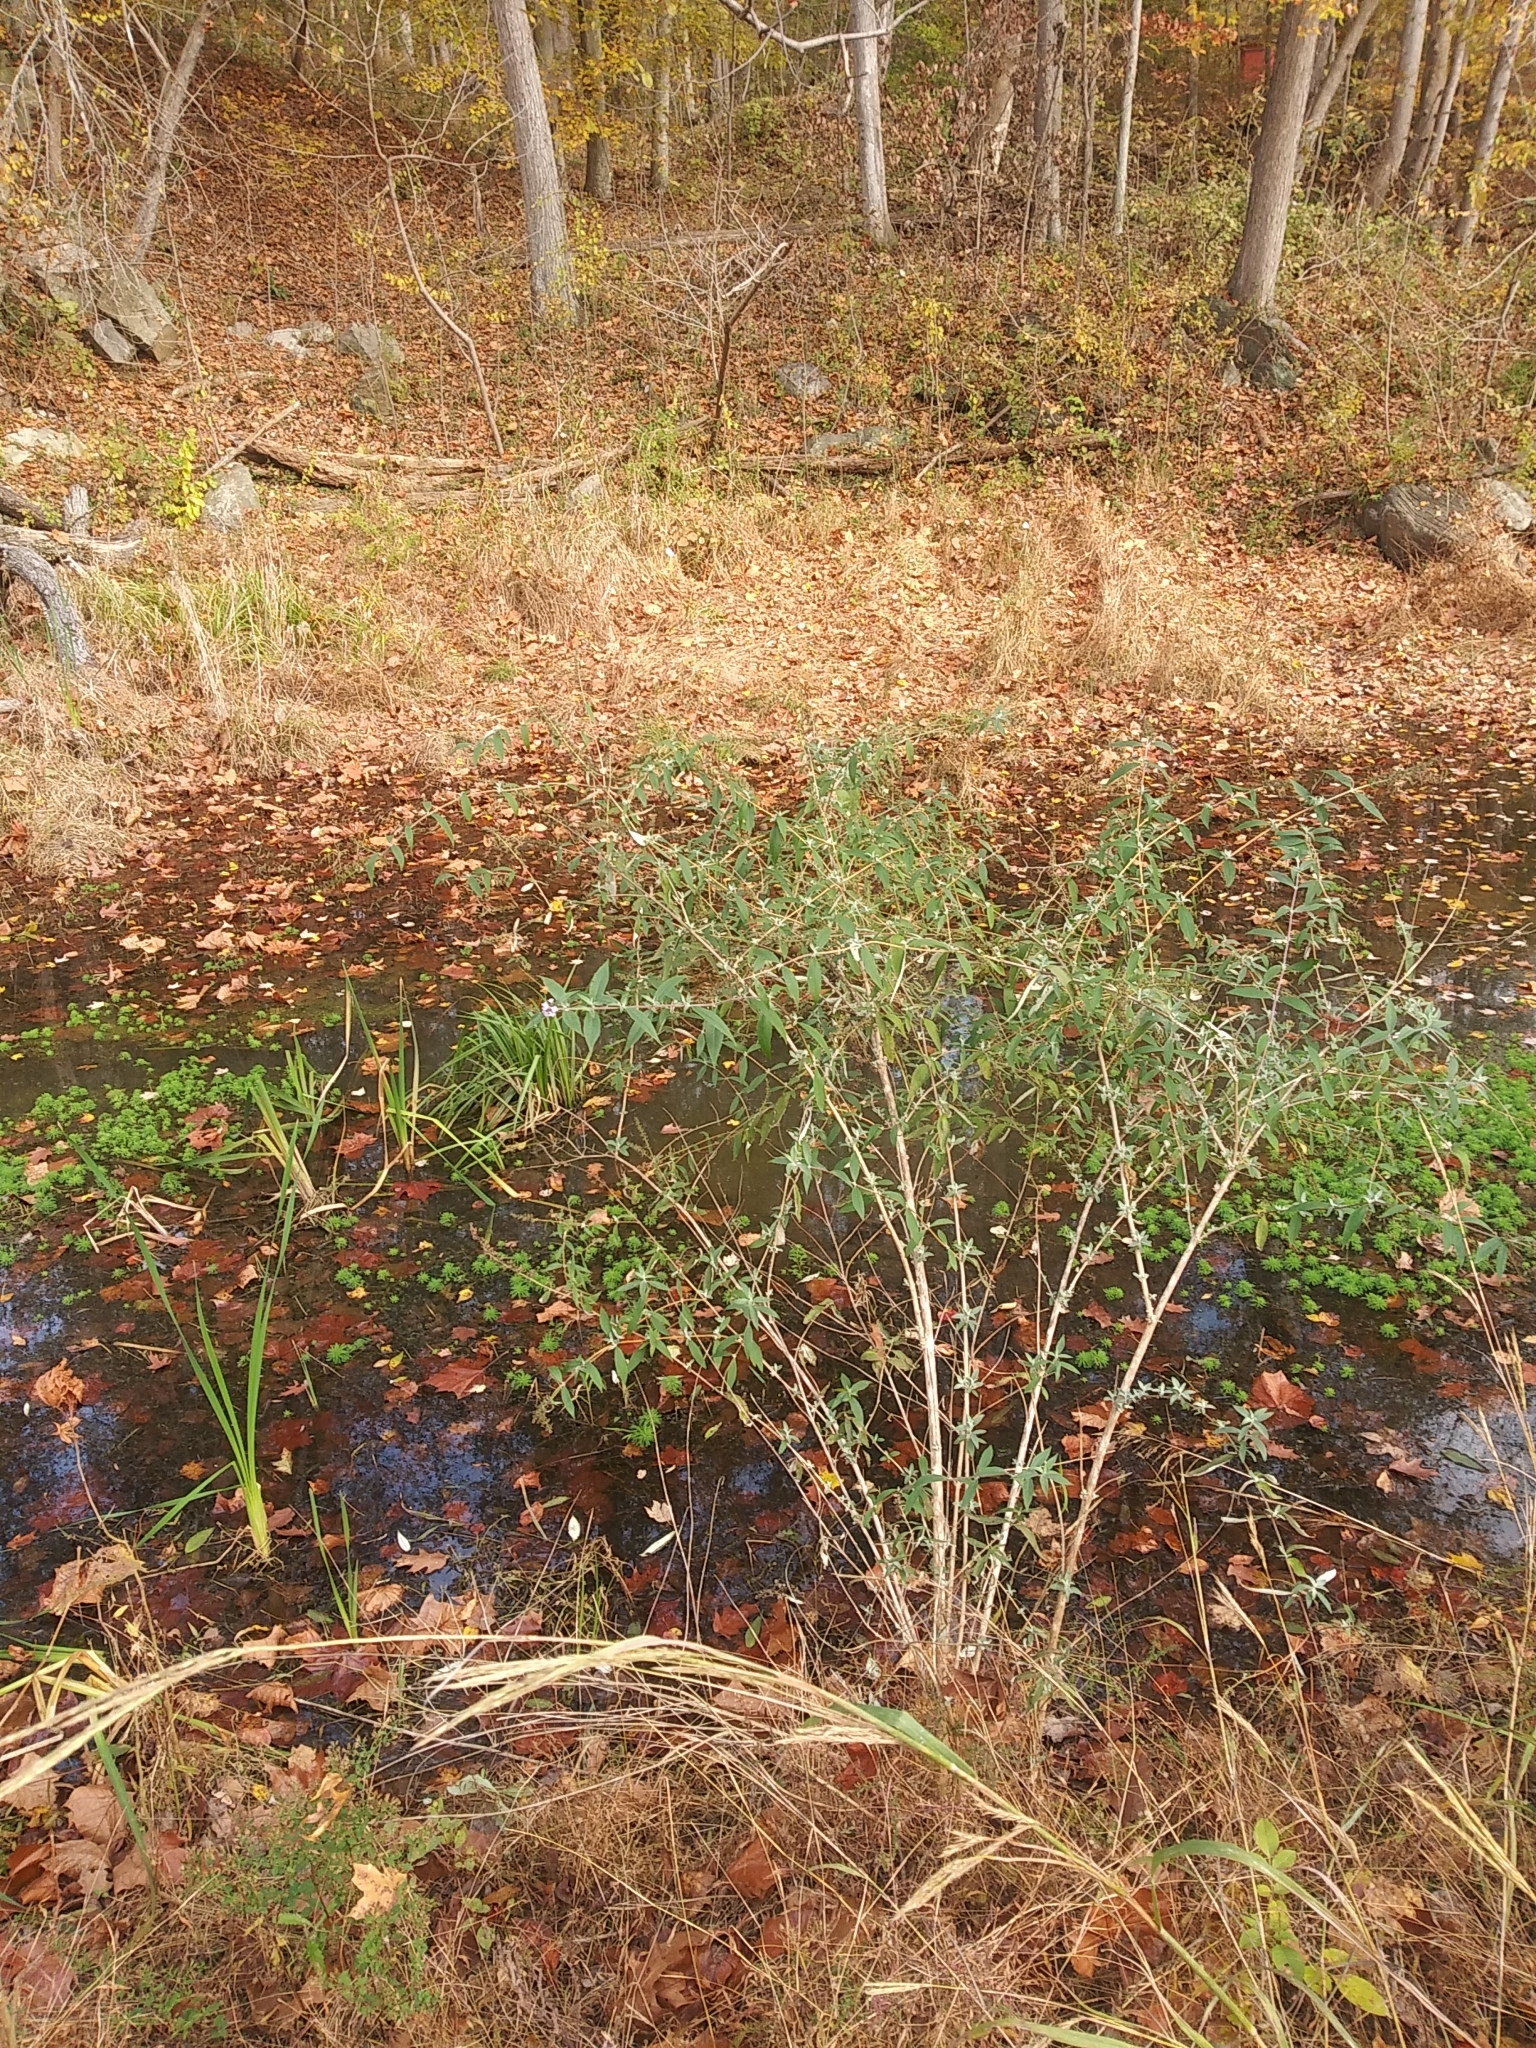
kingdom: Plantae
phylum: Tracheophyta
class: Magnoliopsida
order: Lamiales
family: Scrophulariaceae
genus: Buddleja
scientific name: Buddleja davidii
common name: Butterfly-bush
